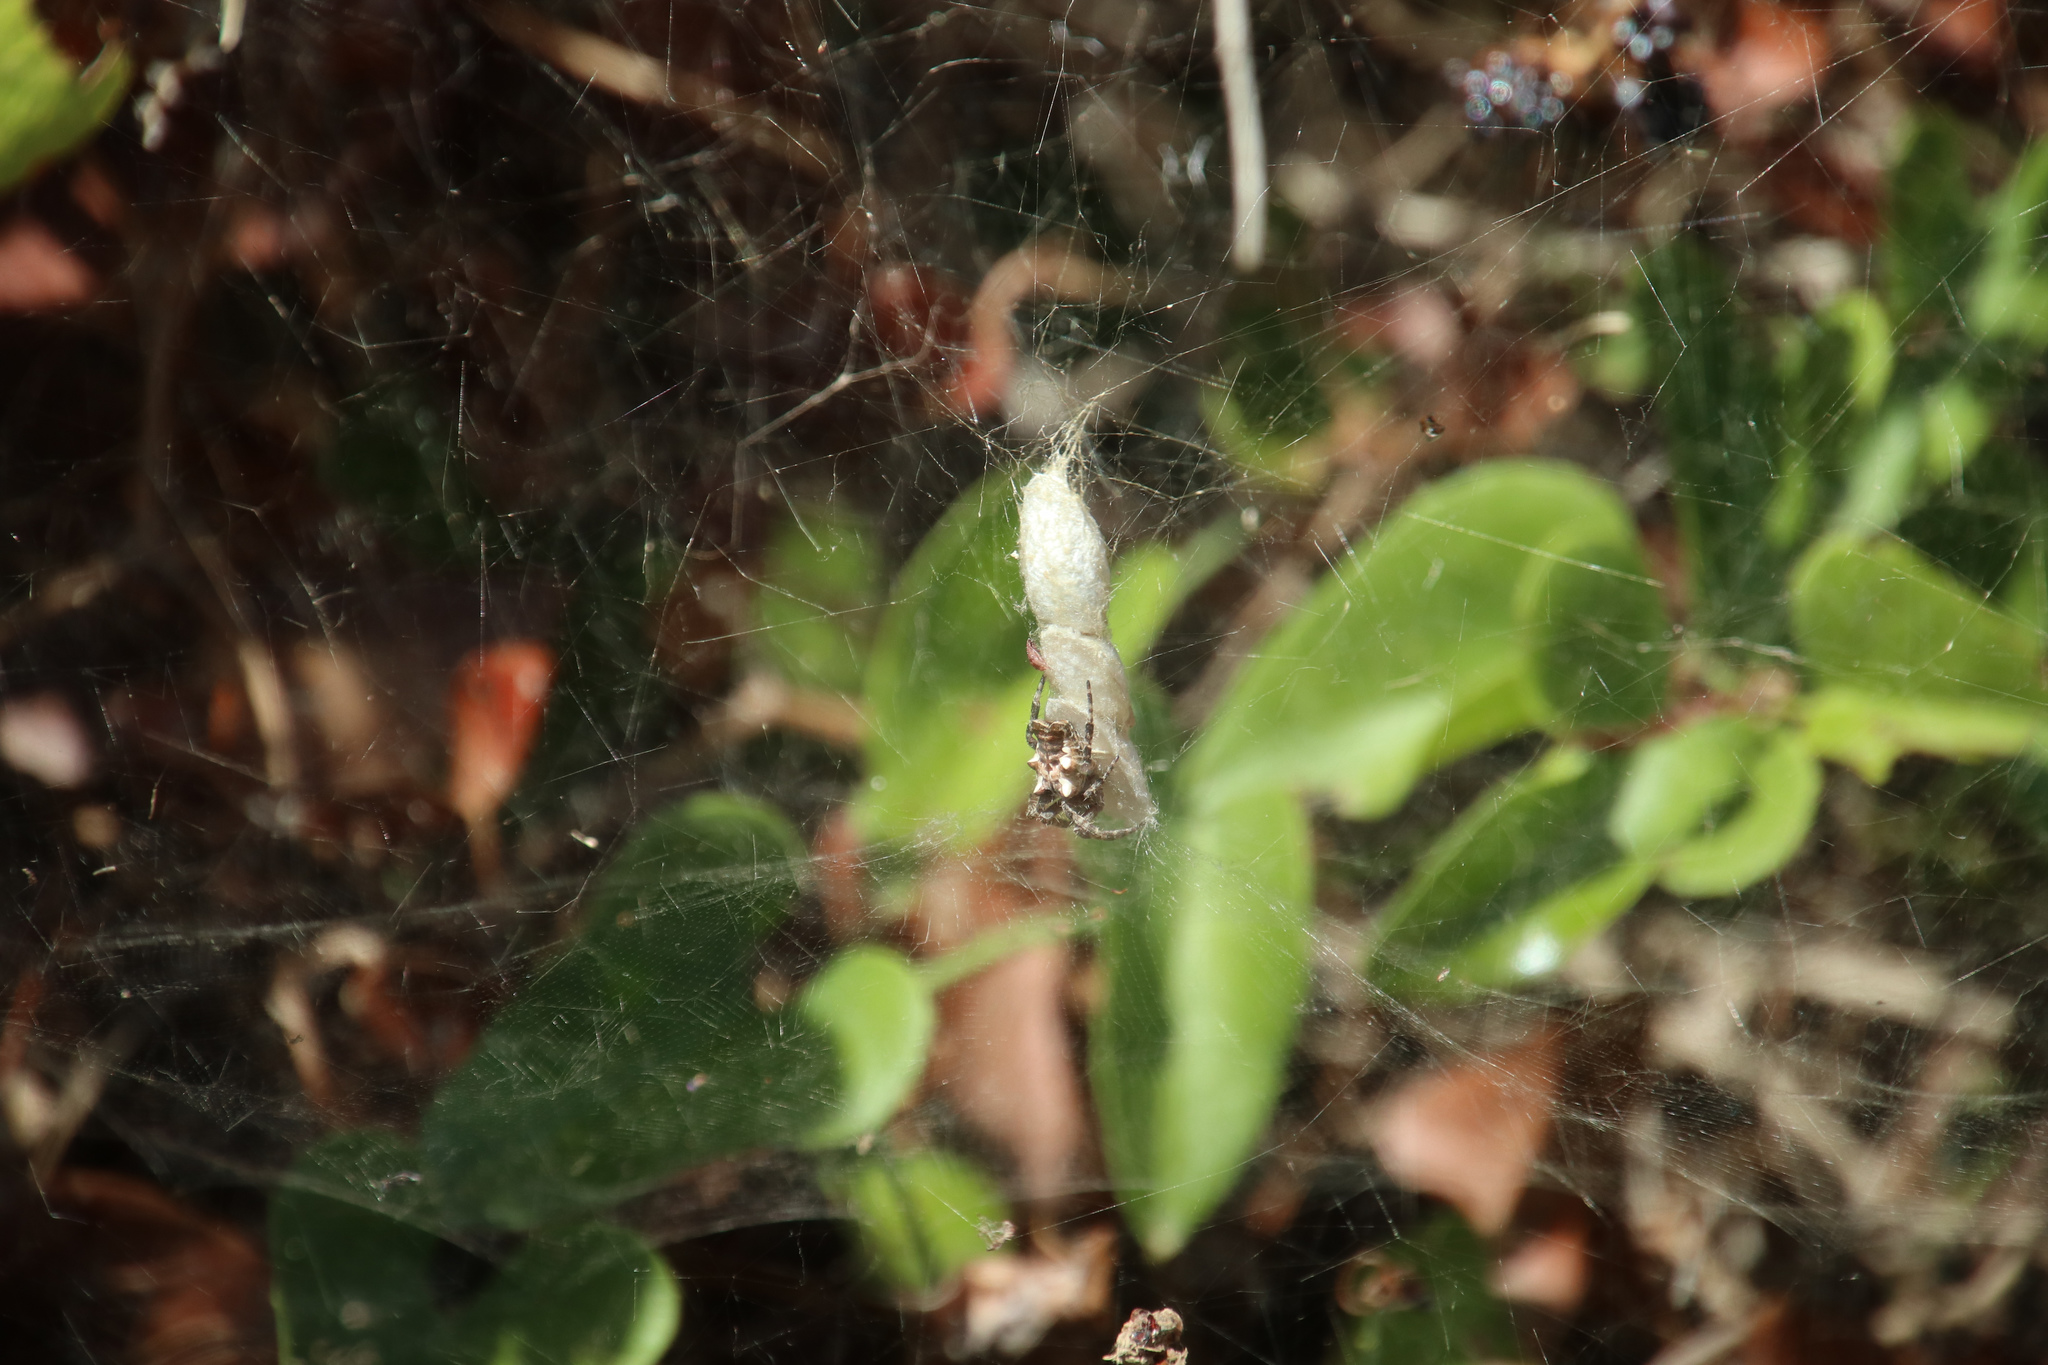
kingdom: Animalia
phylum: Arthropoda
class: Arachnida
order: Araneae
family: Araneidae
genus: Cyrtophora
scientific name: Cyrtophora citricola
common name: Orb weavers
